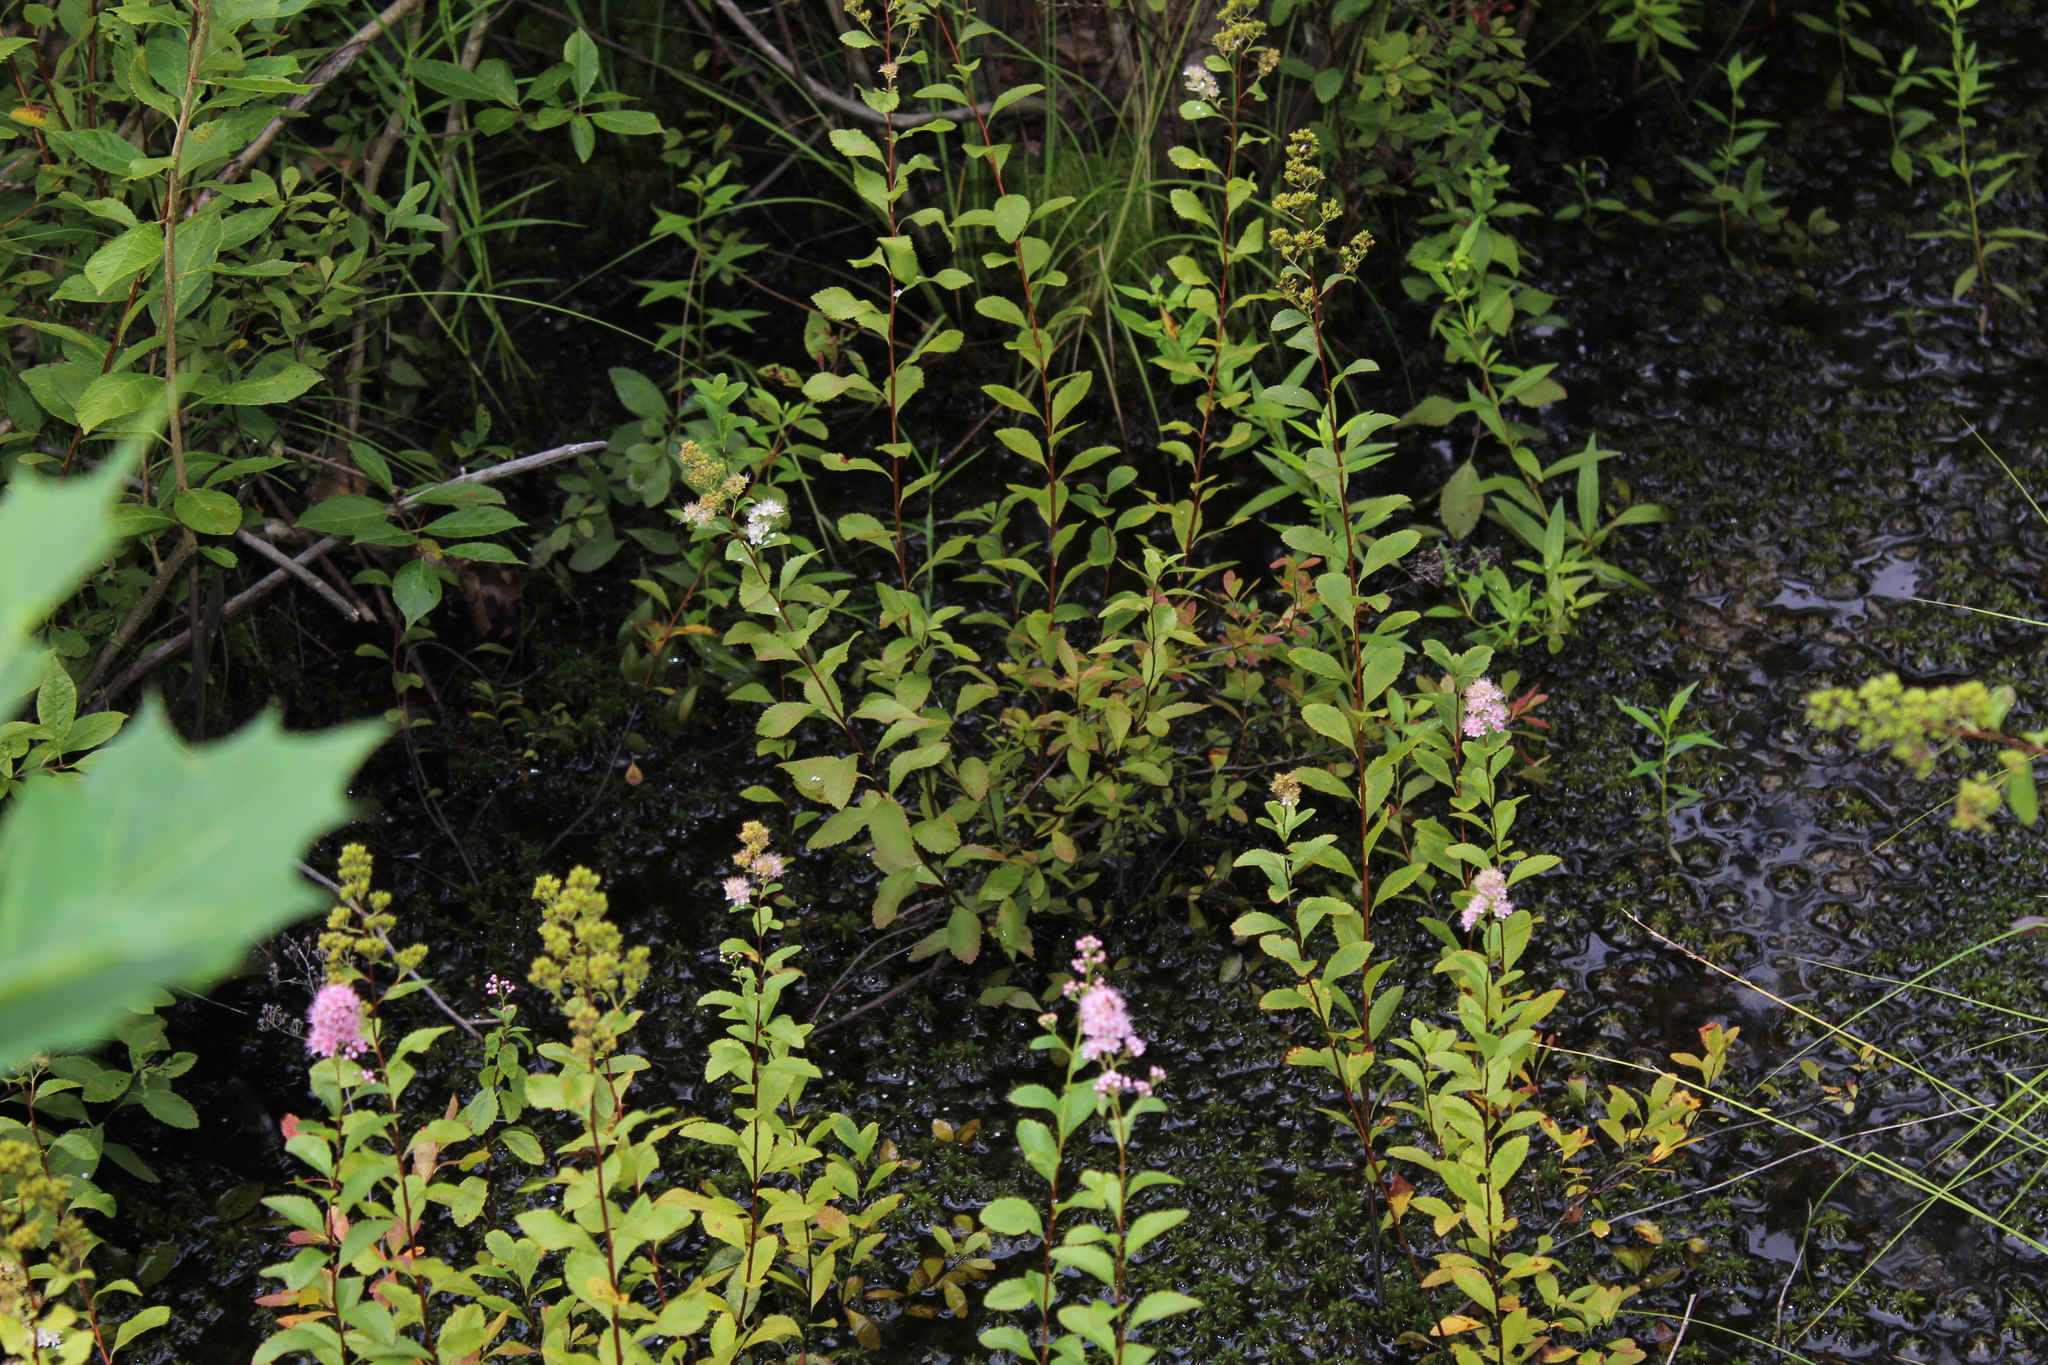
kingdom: Plantae
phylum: Tracheophyta
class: Magnoliopsida
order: Rosales
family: Rosaceae
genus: Spiraea
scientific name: Spiraea alba
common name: Pale bridewort
